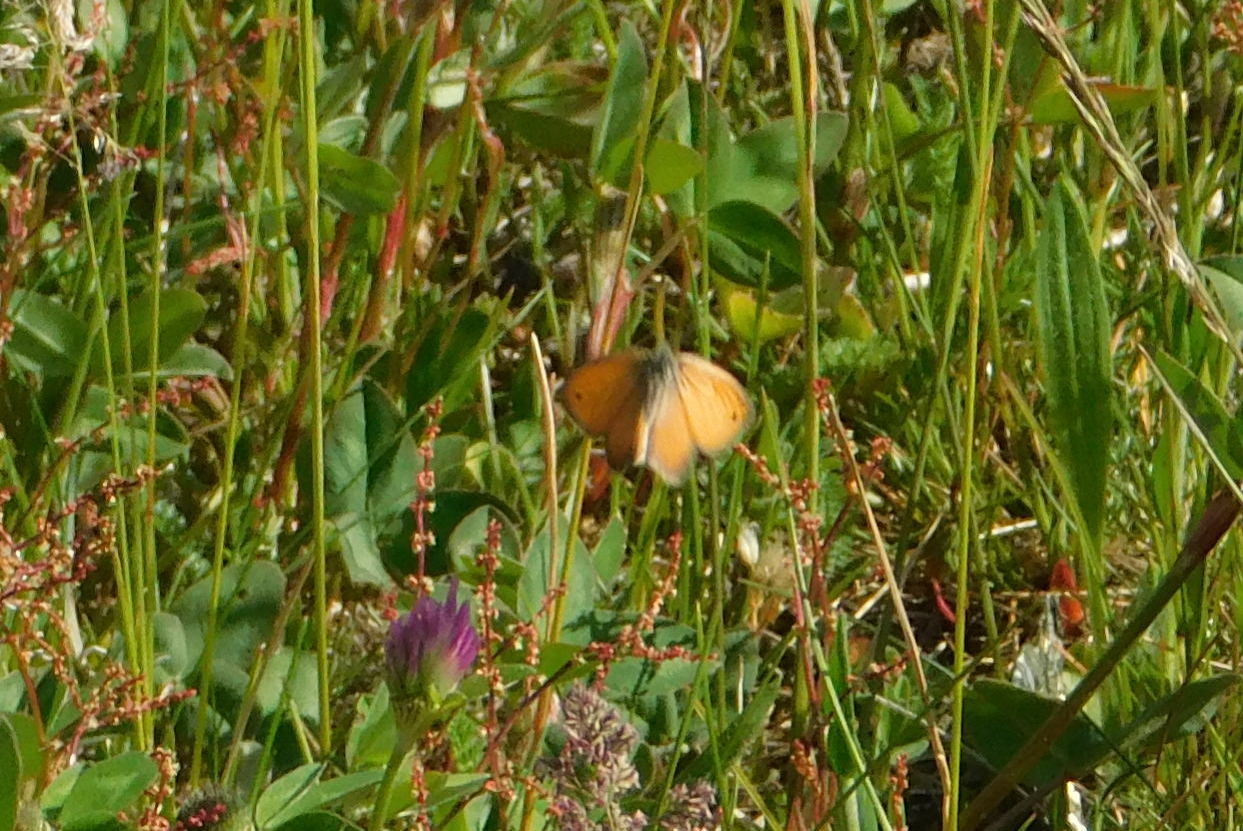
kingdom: Animalia
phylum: Arthropoda
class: Insecta
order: Lepidoptera
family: Nymphalidae
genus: Coenonympha
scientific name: Coenonympha pamphilus
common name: Small heath
